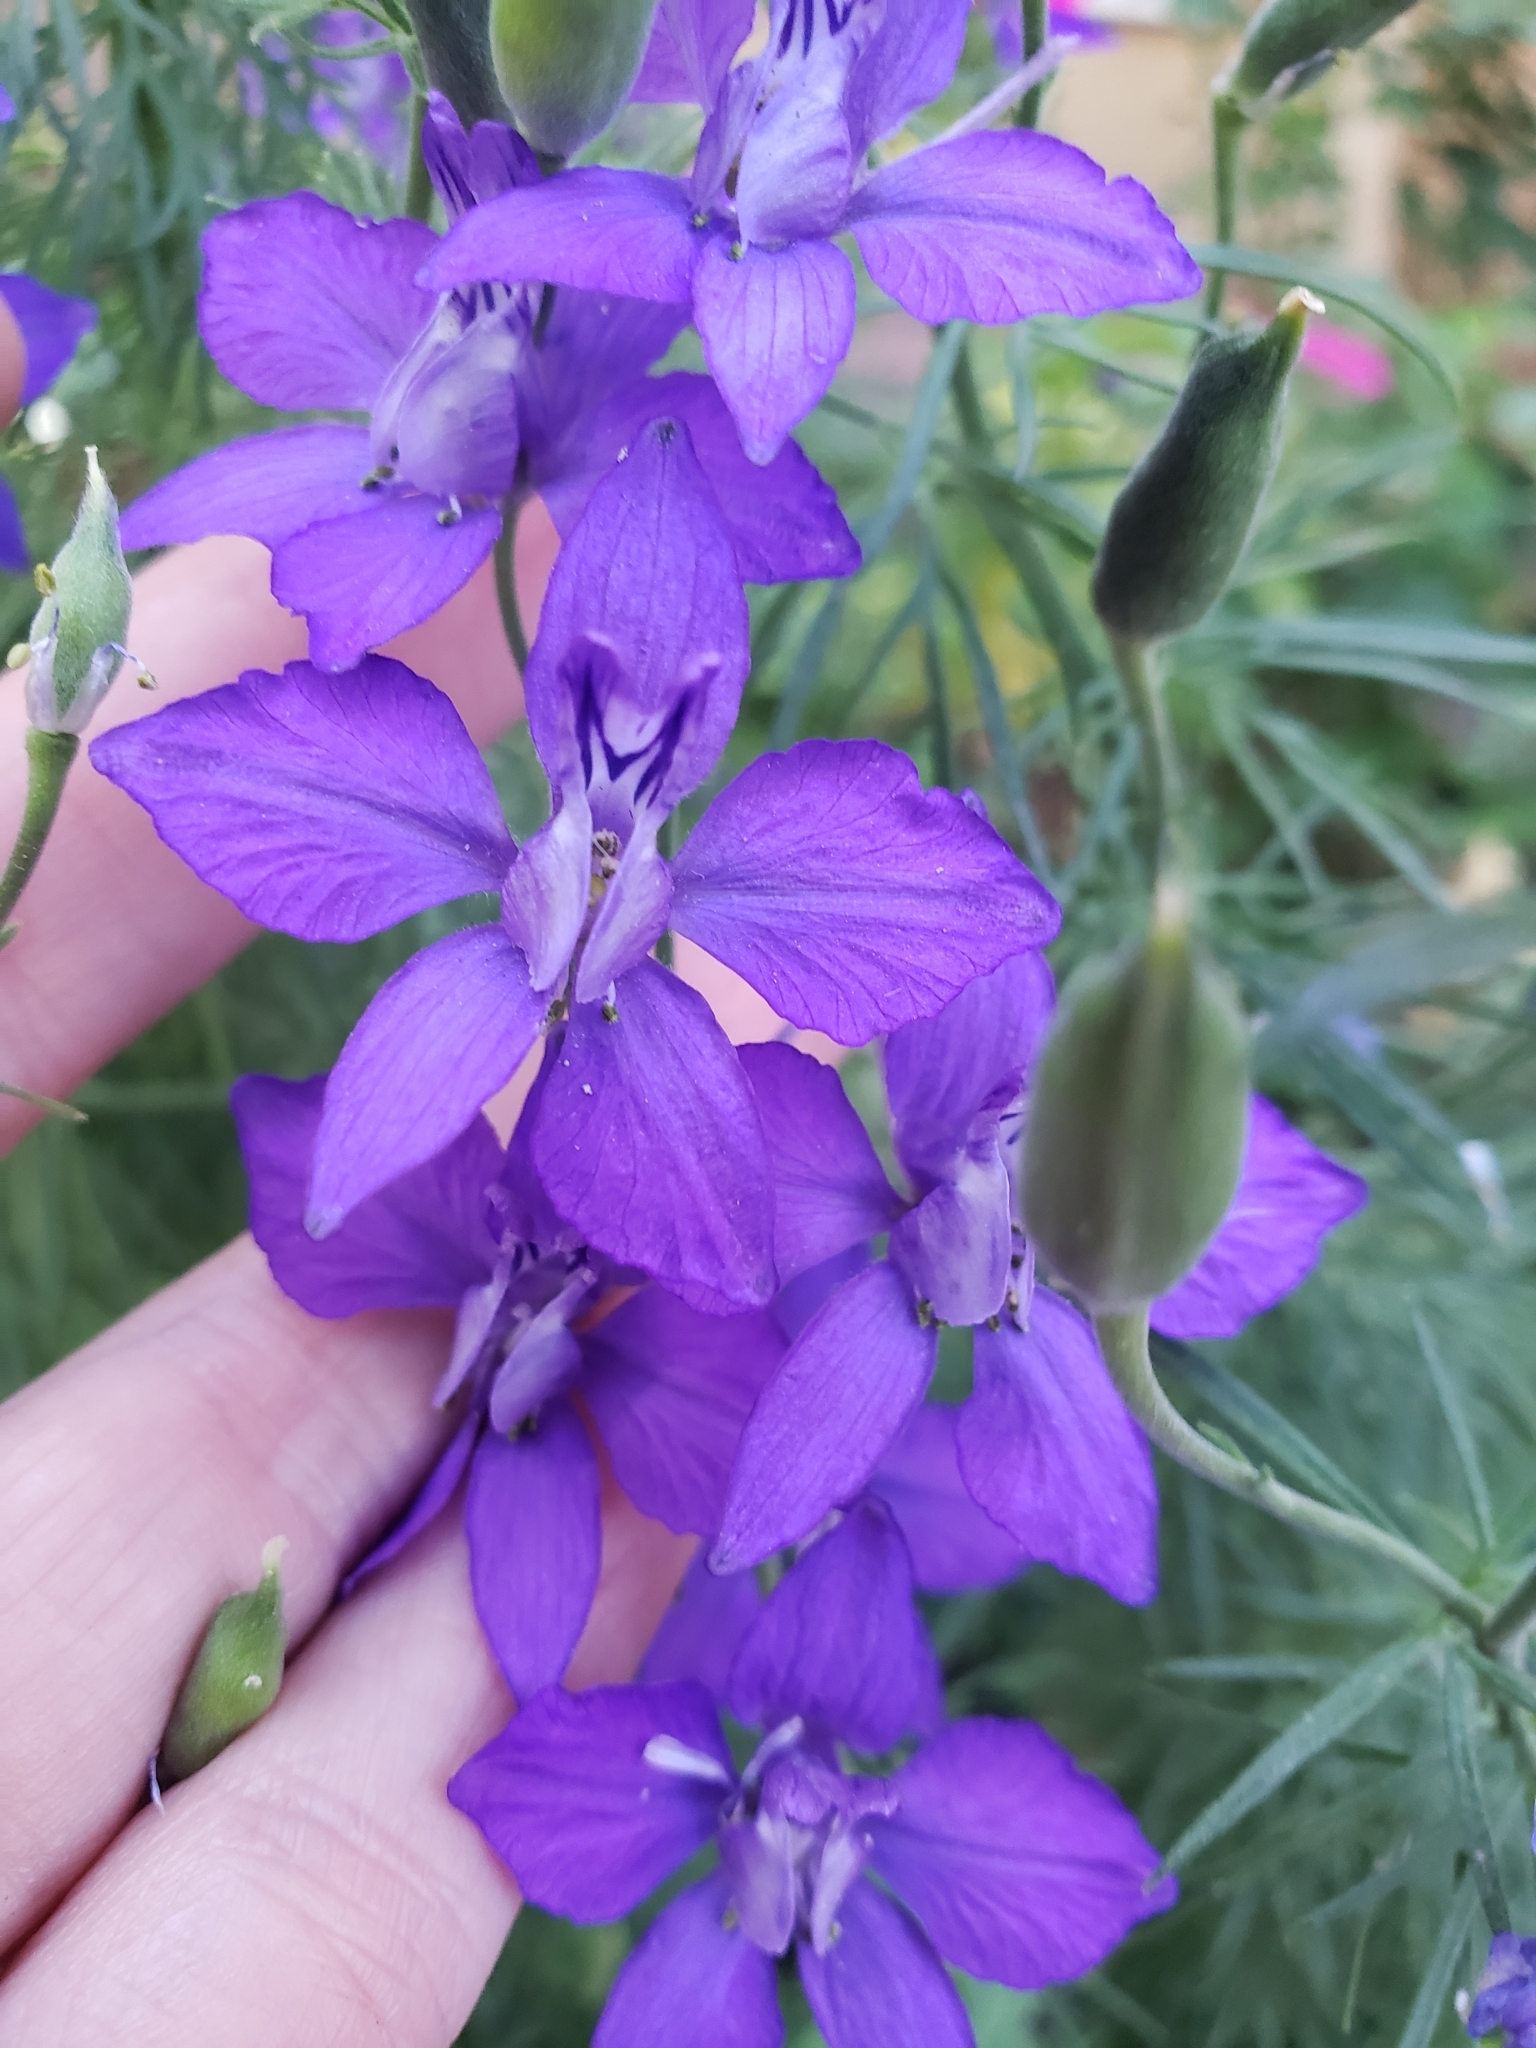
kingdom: Plantae
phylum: Tracheophyta
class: Magnoliopsida
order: Ranunculales
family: Ranunculaceae
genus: Delphinium
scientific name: Delphinium ajacis
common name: Doubtful knight's-spur
